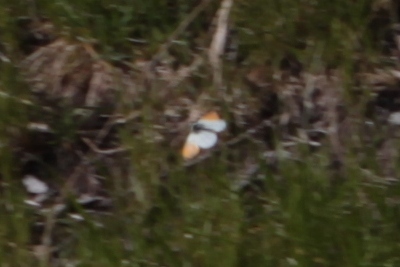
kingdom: Animalia
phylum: Arthropoda
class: Insecta
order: Lepidoptera
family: Pieridae
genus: Anthocharis
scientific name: Anthocharis cardamines
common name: Orange-tip
